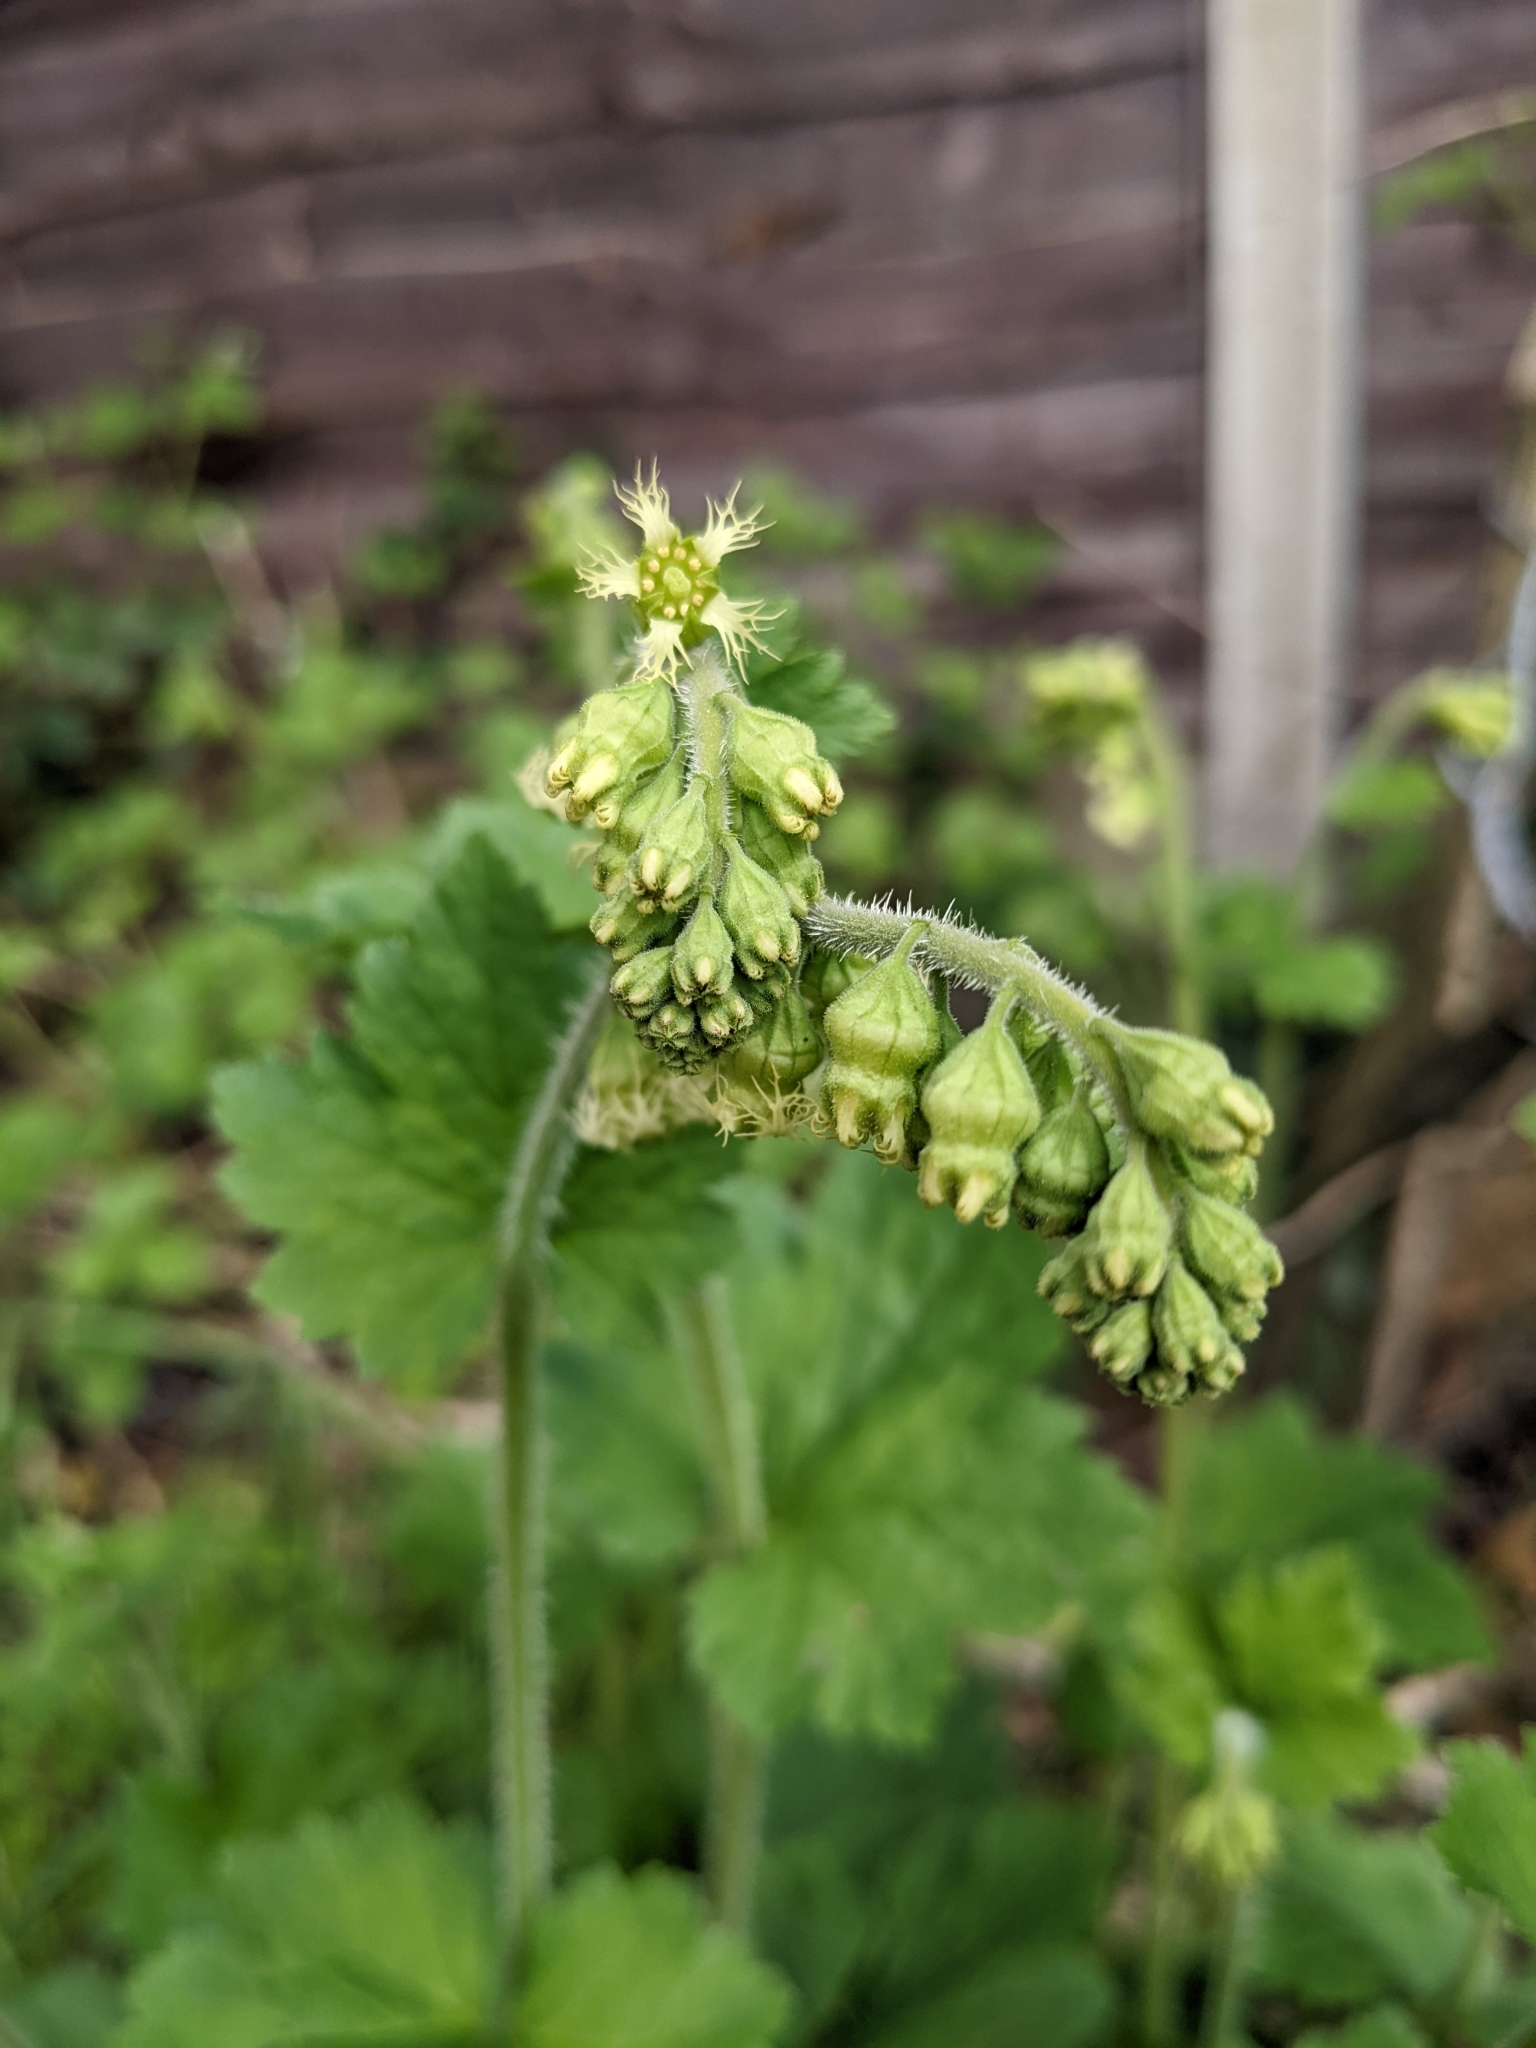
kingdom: Plantae
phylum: Tracheophyta
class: Magnoliopsida
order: Saxifragales
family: Saxifragaceae
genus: Tellima
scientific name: Tellima grandiflora
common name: Fringecups
